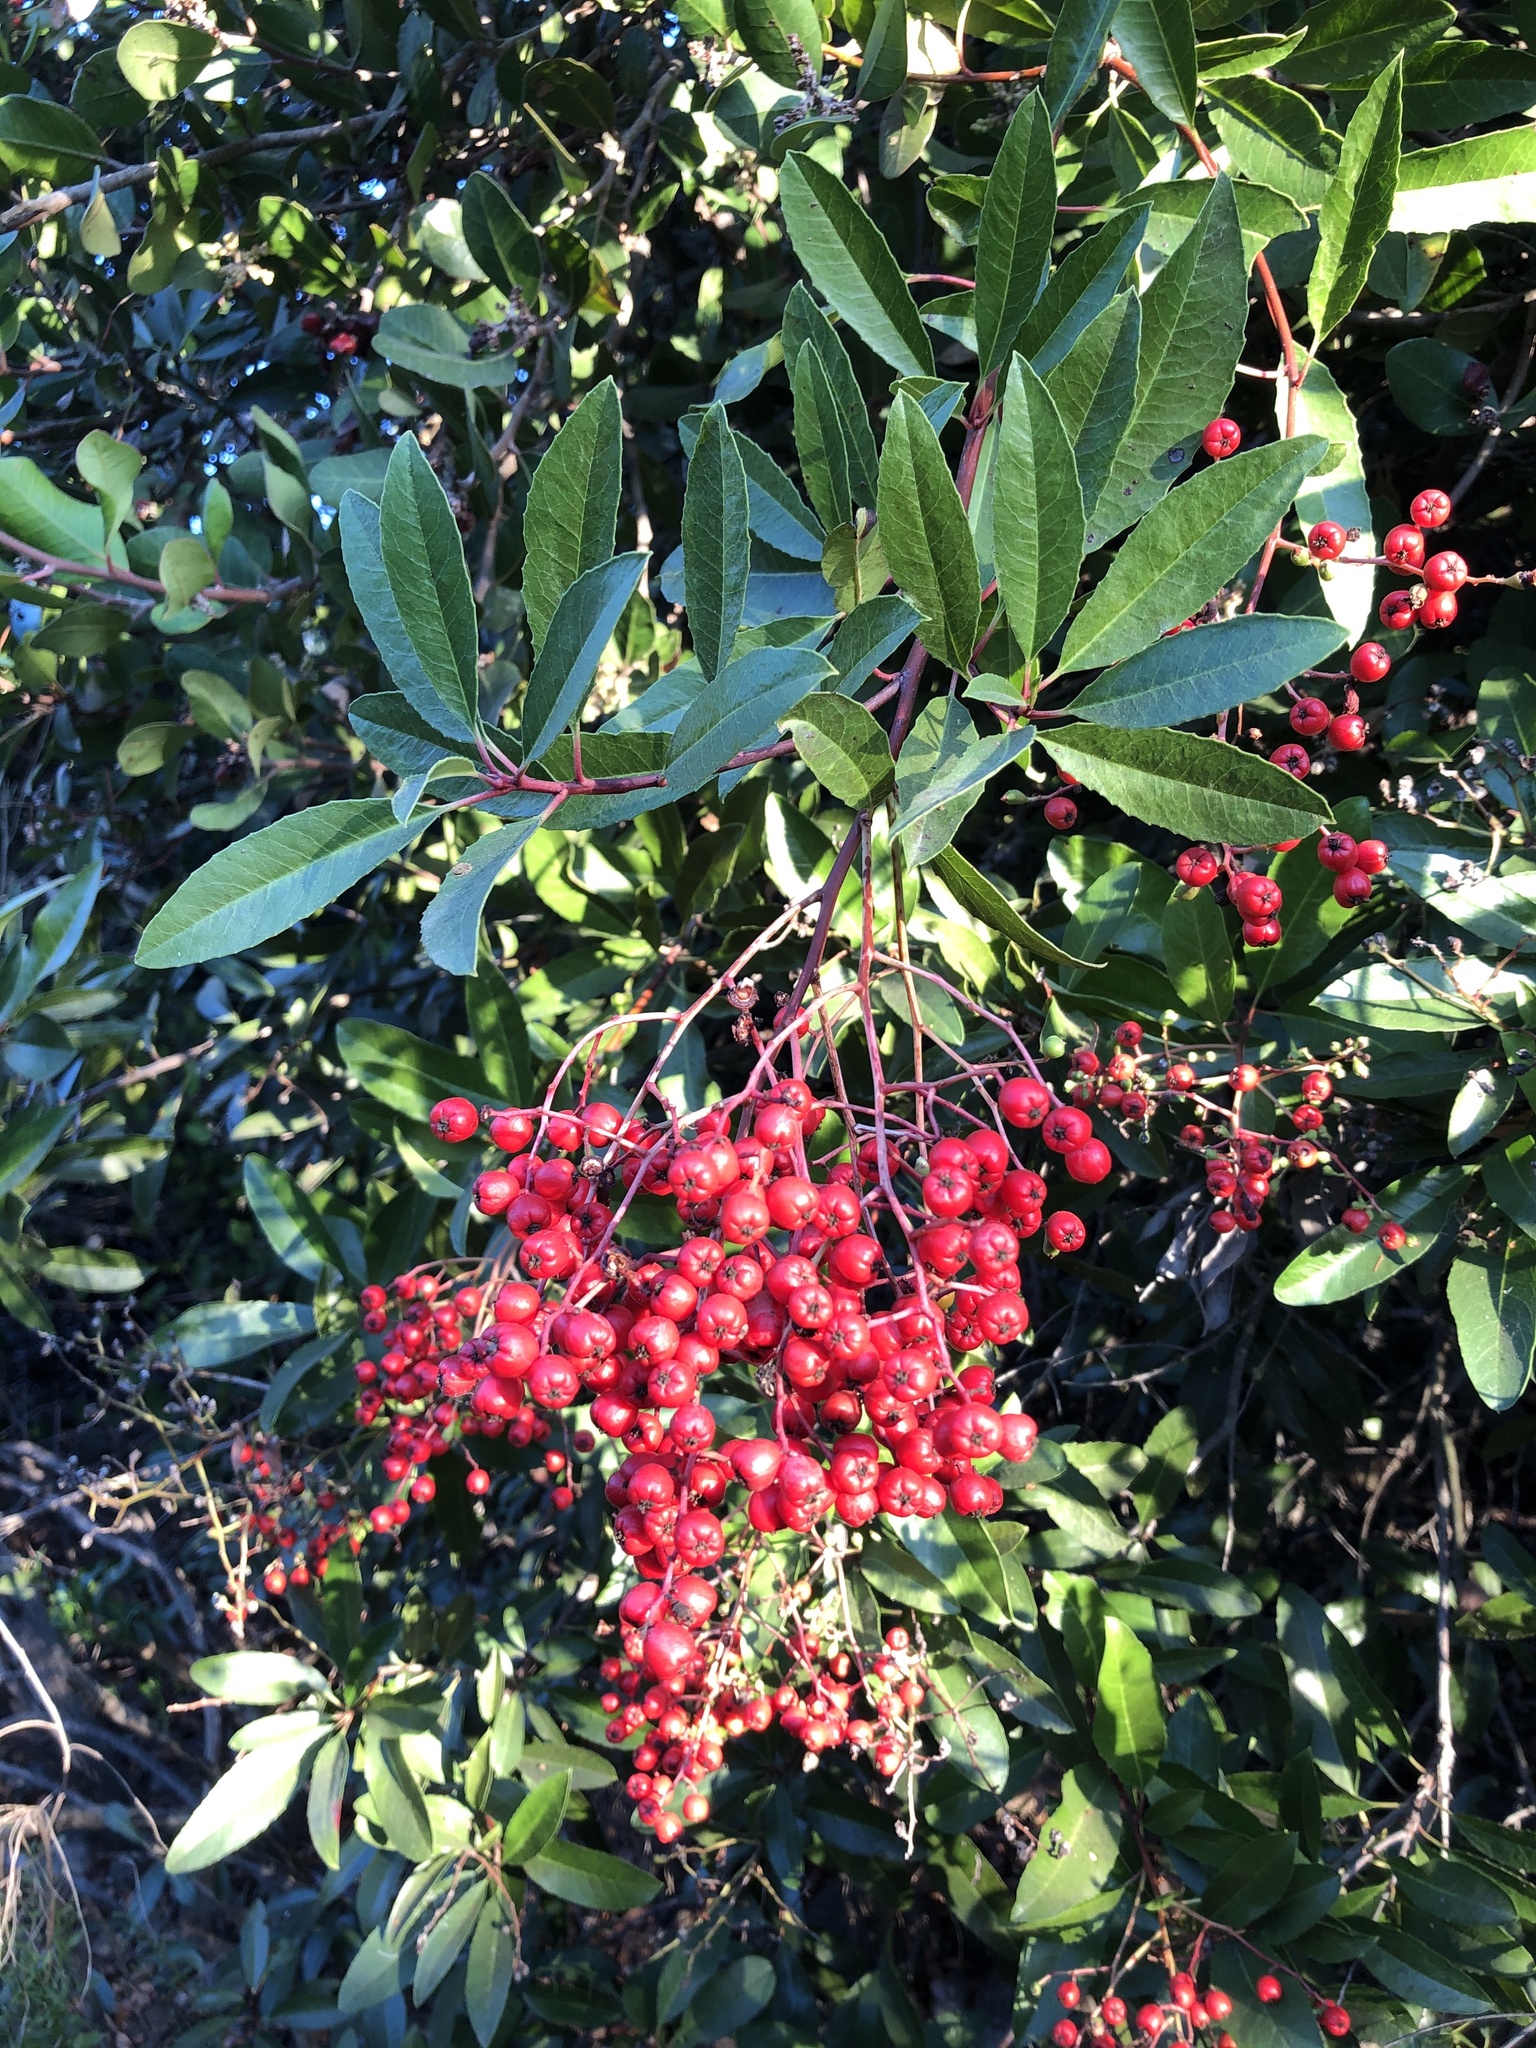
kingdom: Plantae
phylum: Tracheophyta
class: Magnoliopsida
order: Rosales
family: Rosaceae
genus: Heteromeles
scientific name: Heteromeles arbutifolia
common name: California-holly
